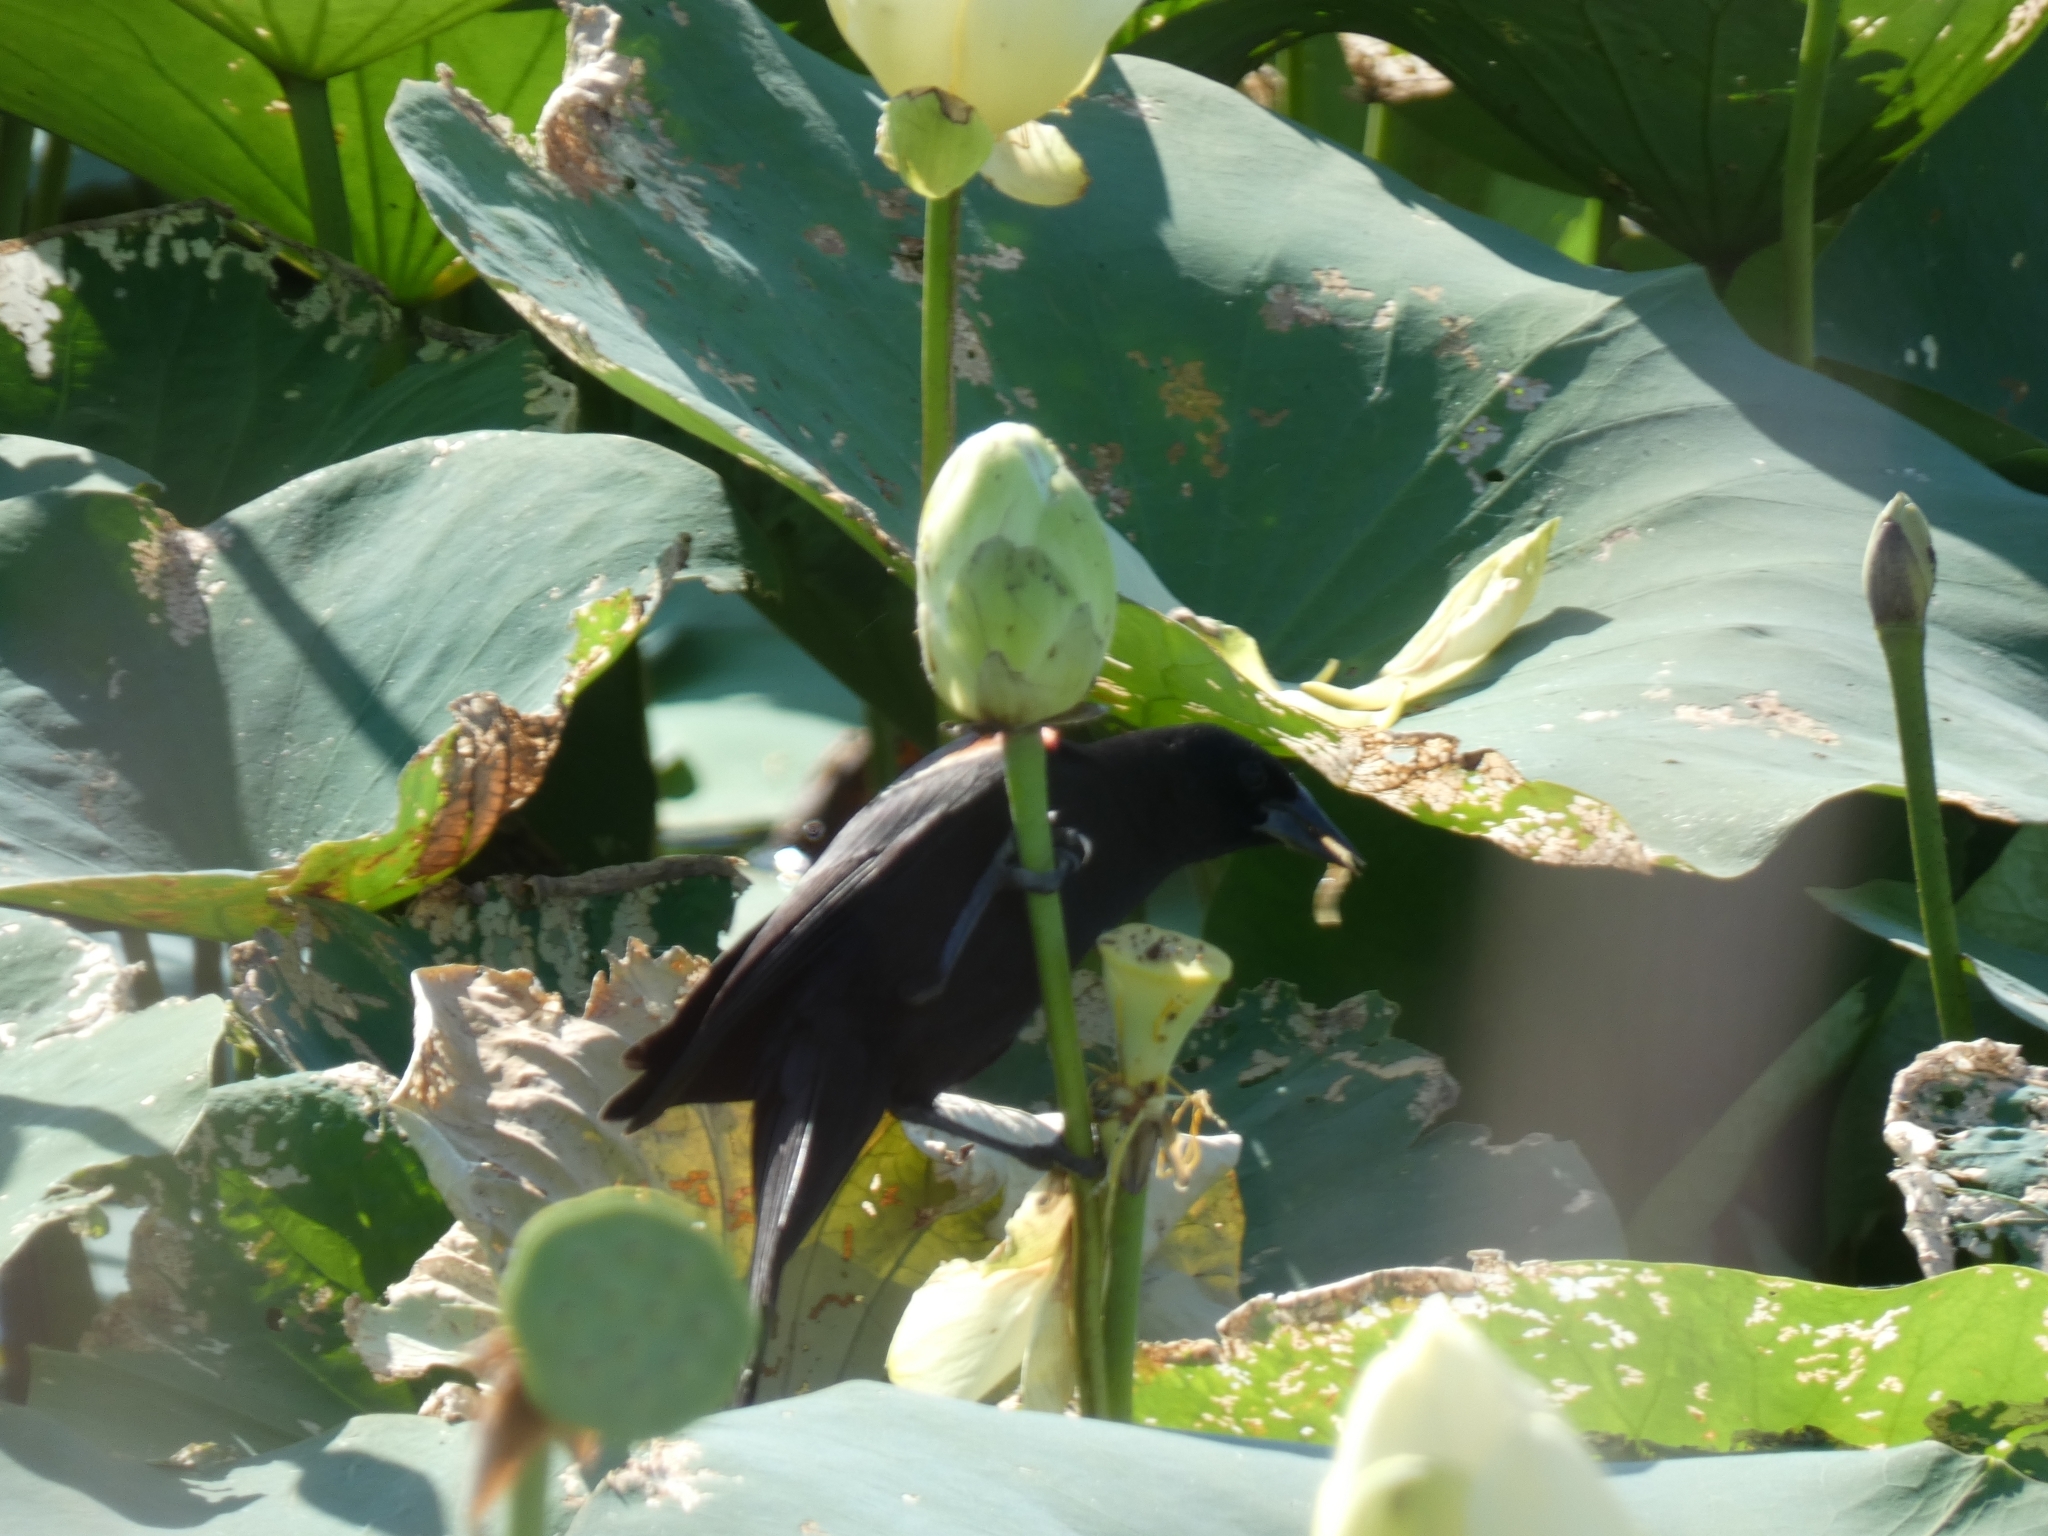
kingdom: Animalia
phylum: Chordata
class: Aves
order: Passeriformes
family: Icteridae
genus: Agelaius
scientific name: Agelaius phoeniceus
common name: Red-winged blackbird
